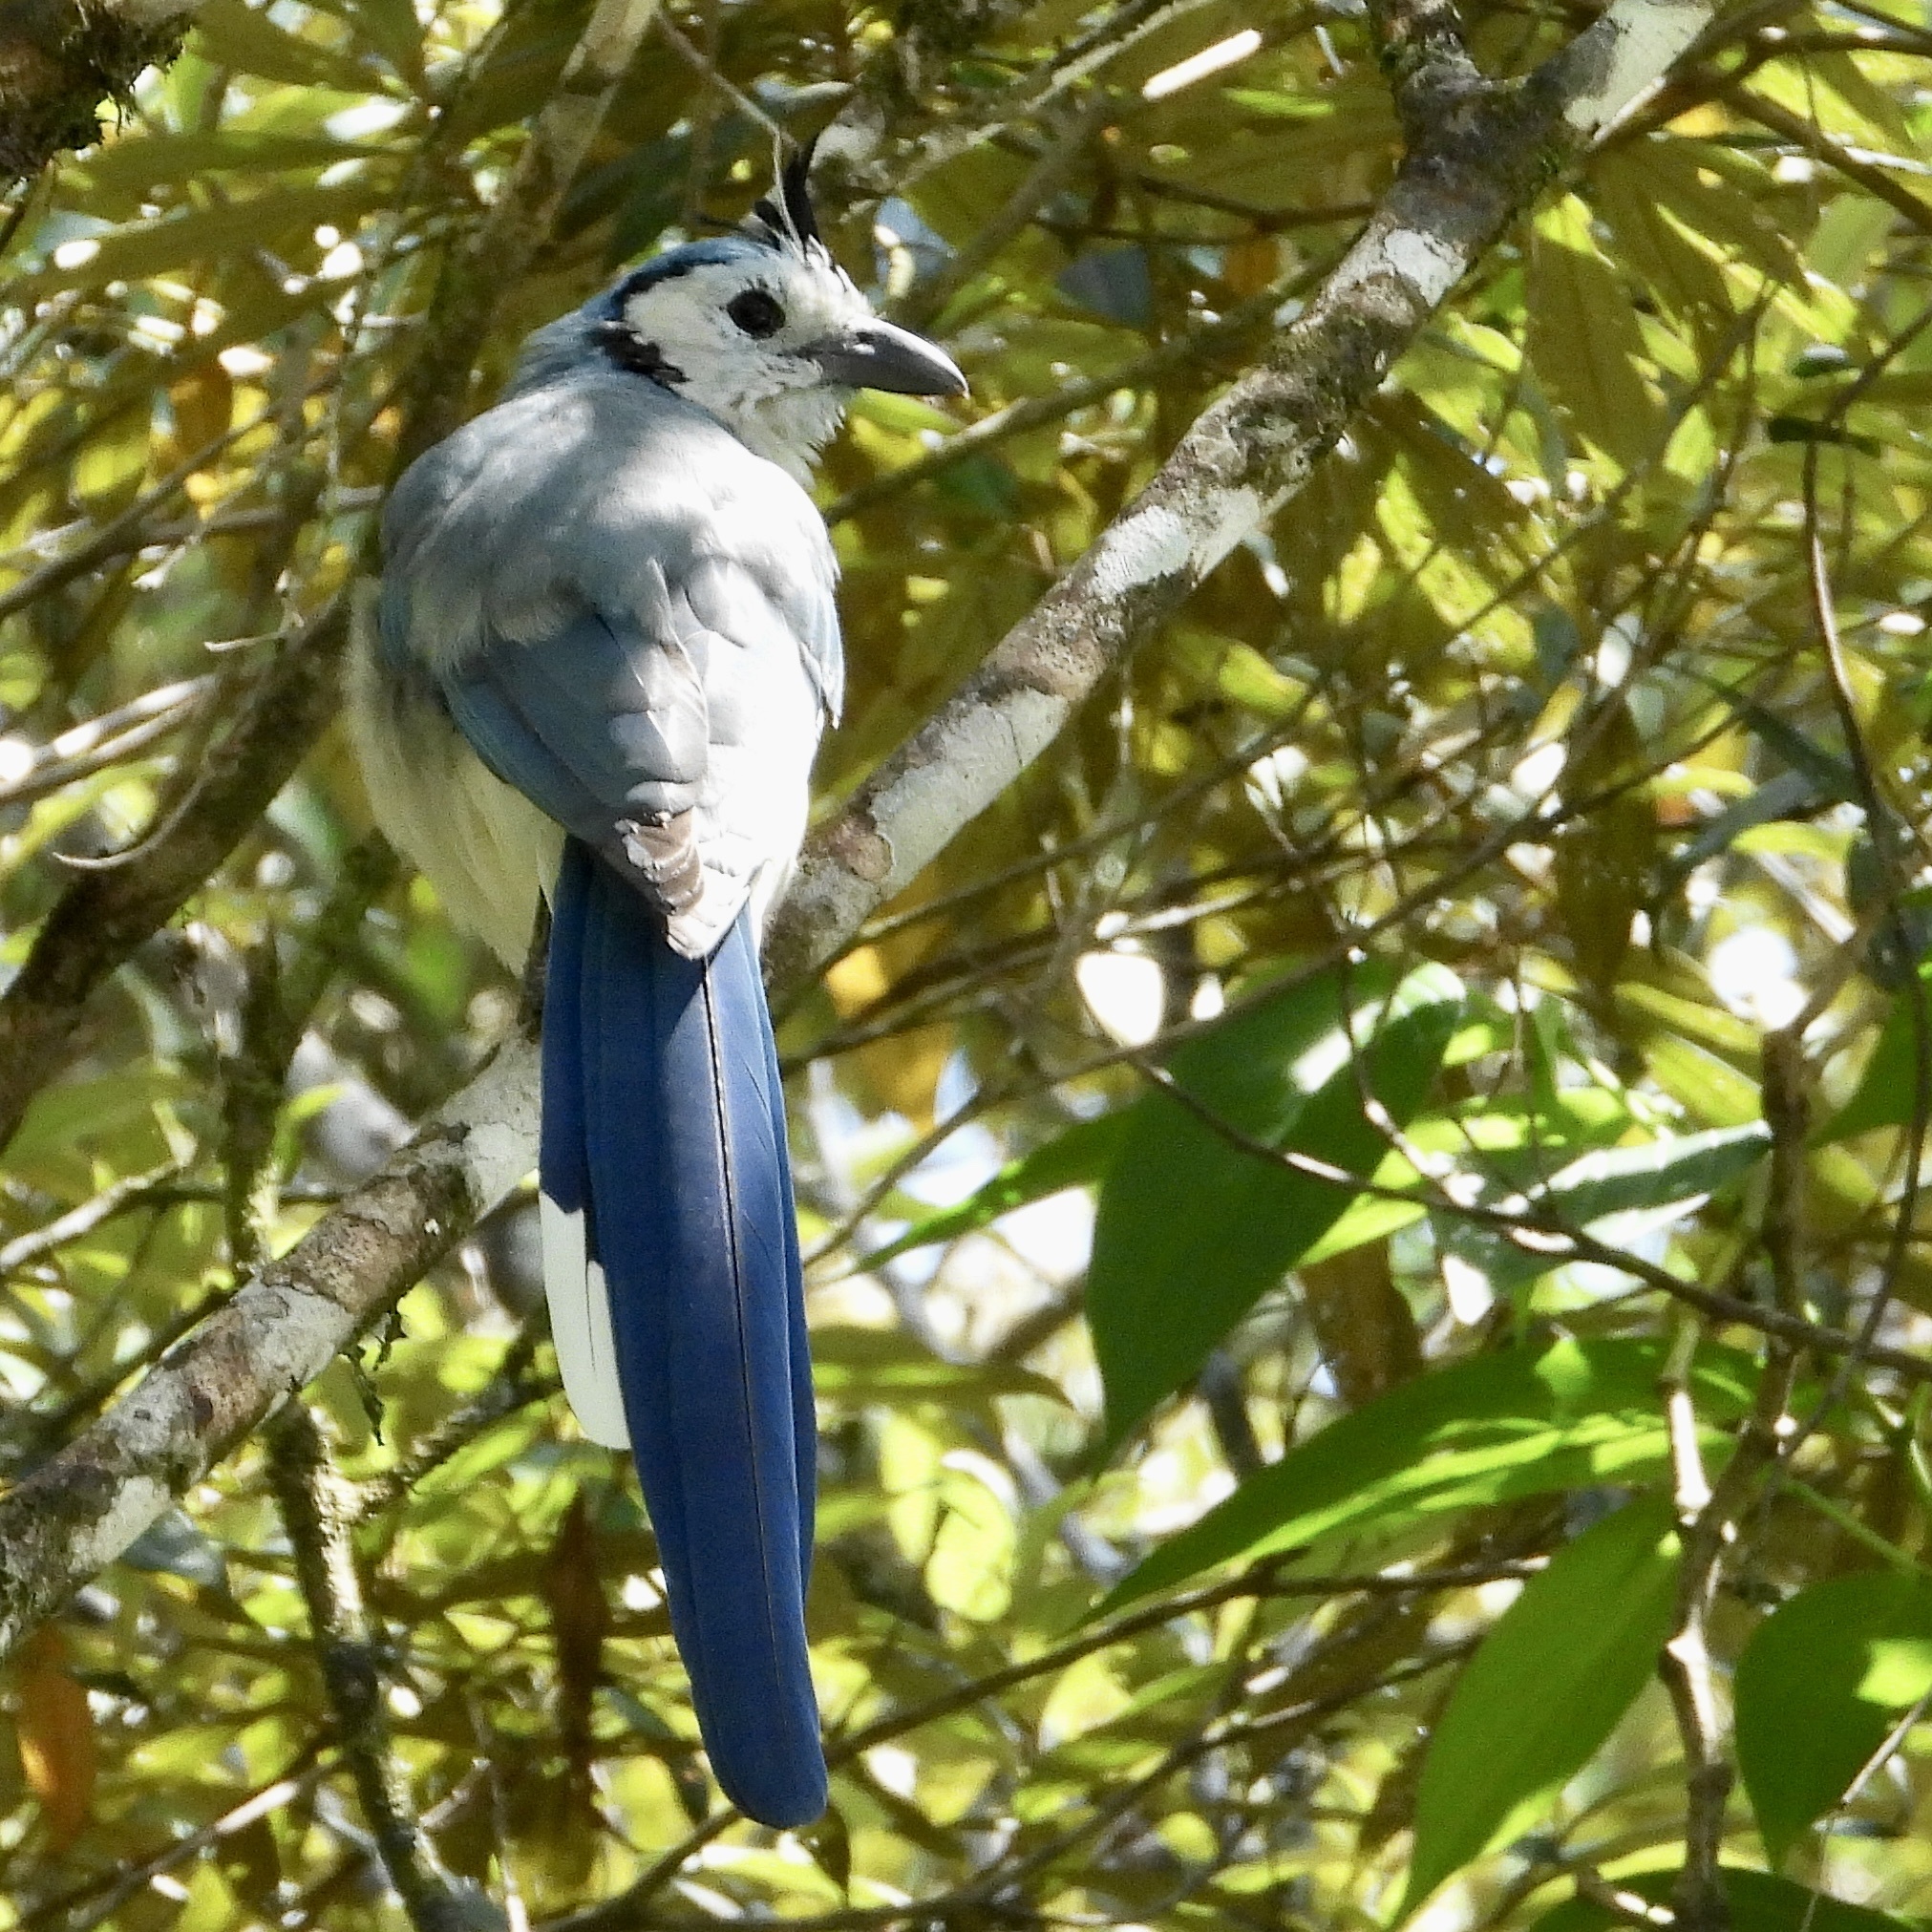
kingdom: Animalia
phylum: Chordata
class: Aves
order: Passeriformes
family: Corvidae
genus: Calocitta
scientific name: Calocitta formosa
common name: White-throated magpie-jay
